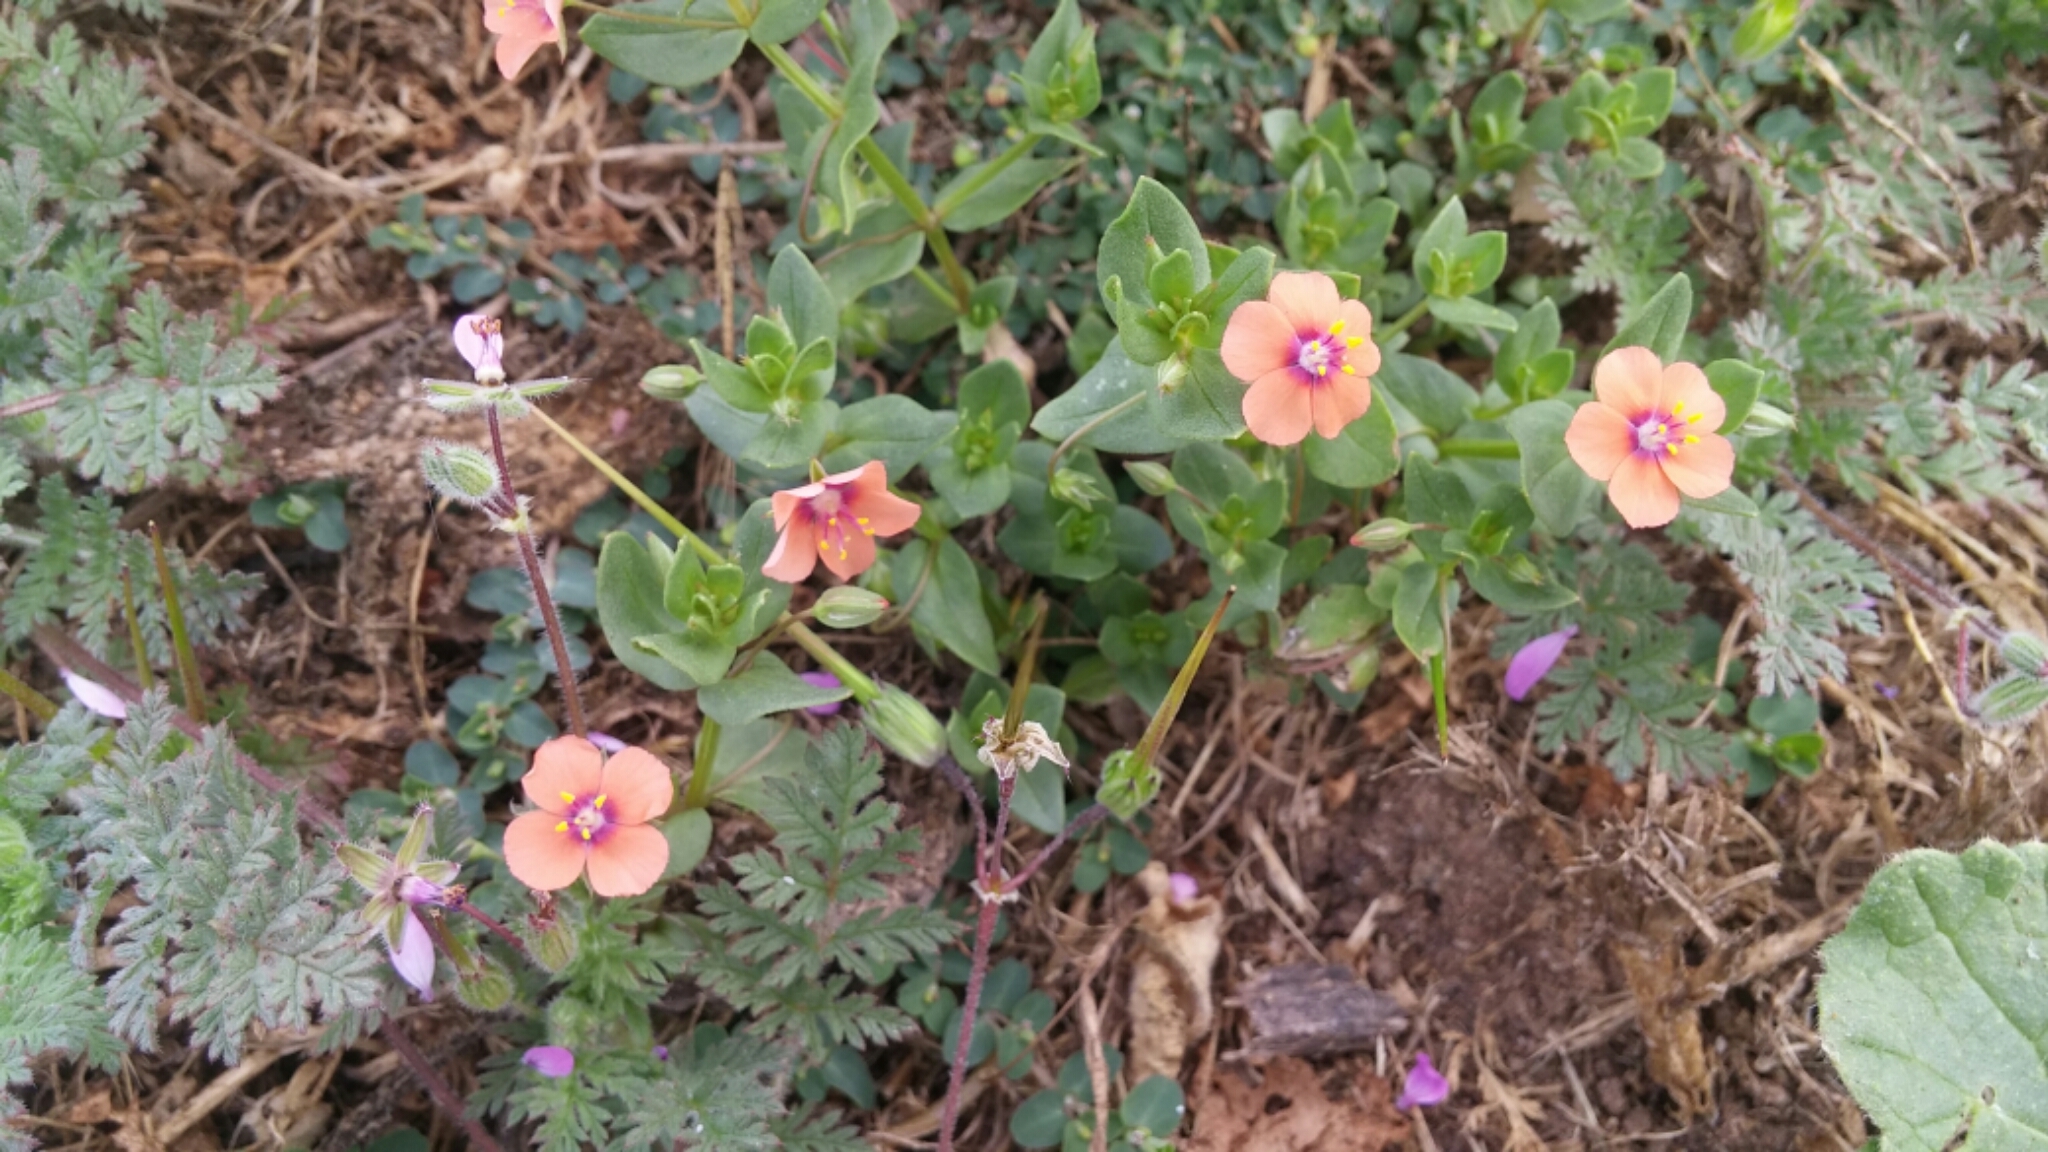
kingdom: Plantae
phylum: Tracheophyta
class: Magnoliopsida
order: Ericales
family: Primulaceae
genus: Lysimachia
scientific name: Lysimachia arvensis
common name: Scarlet pimpernel
